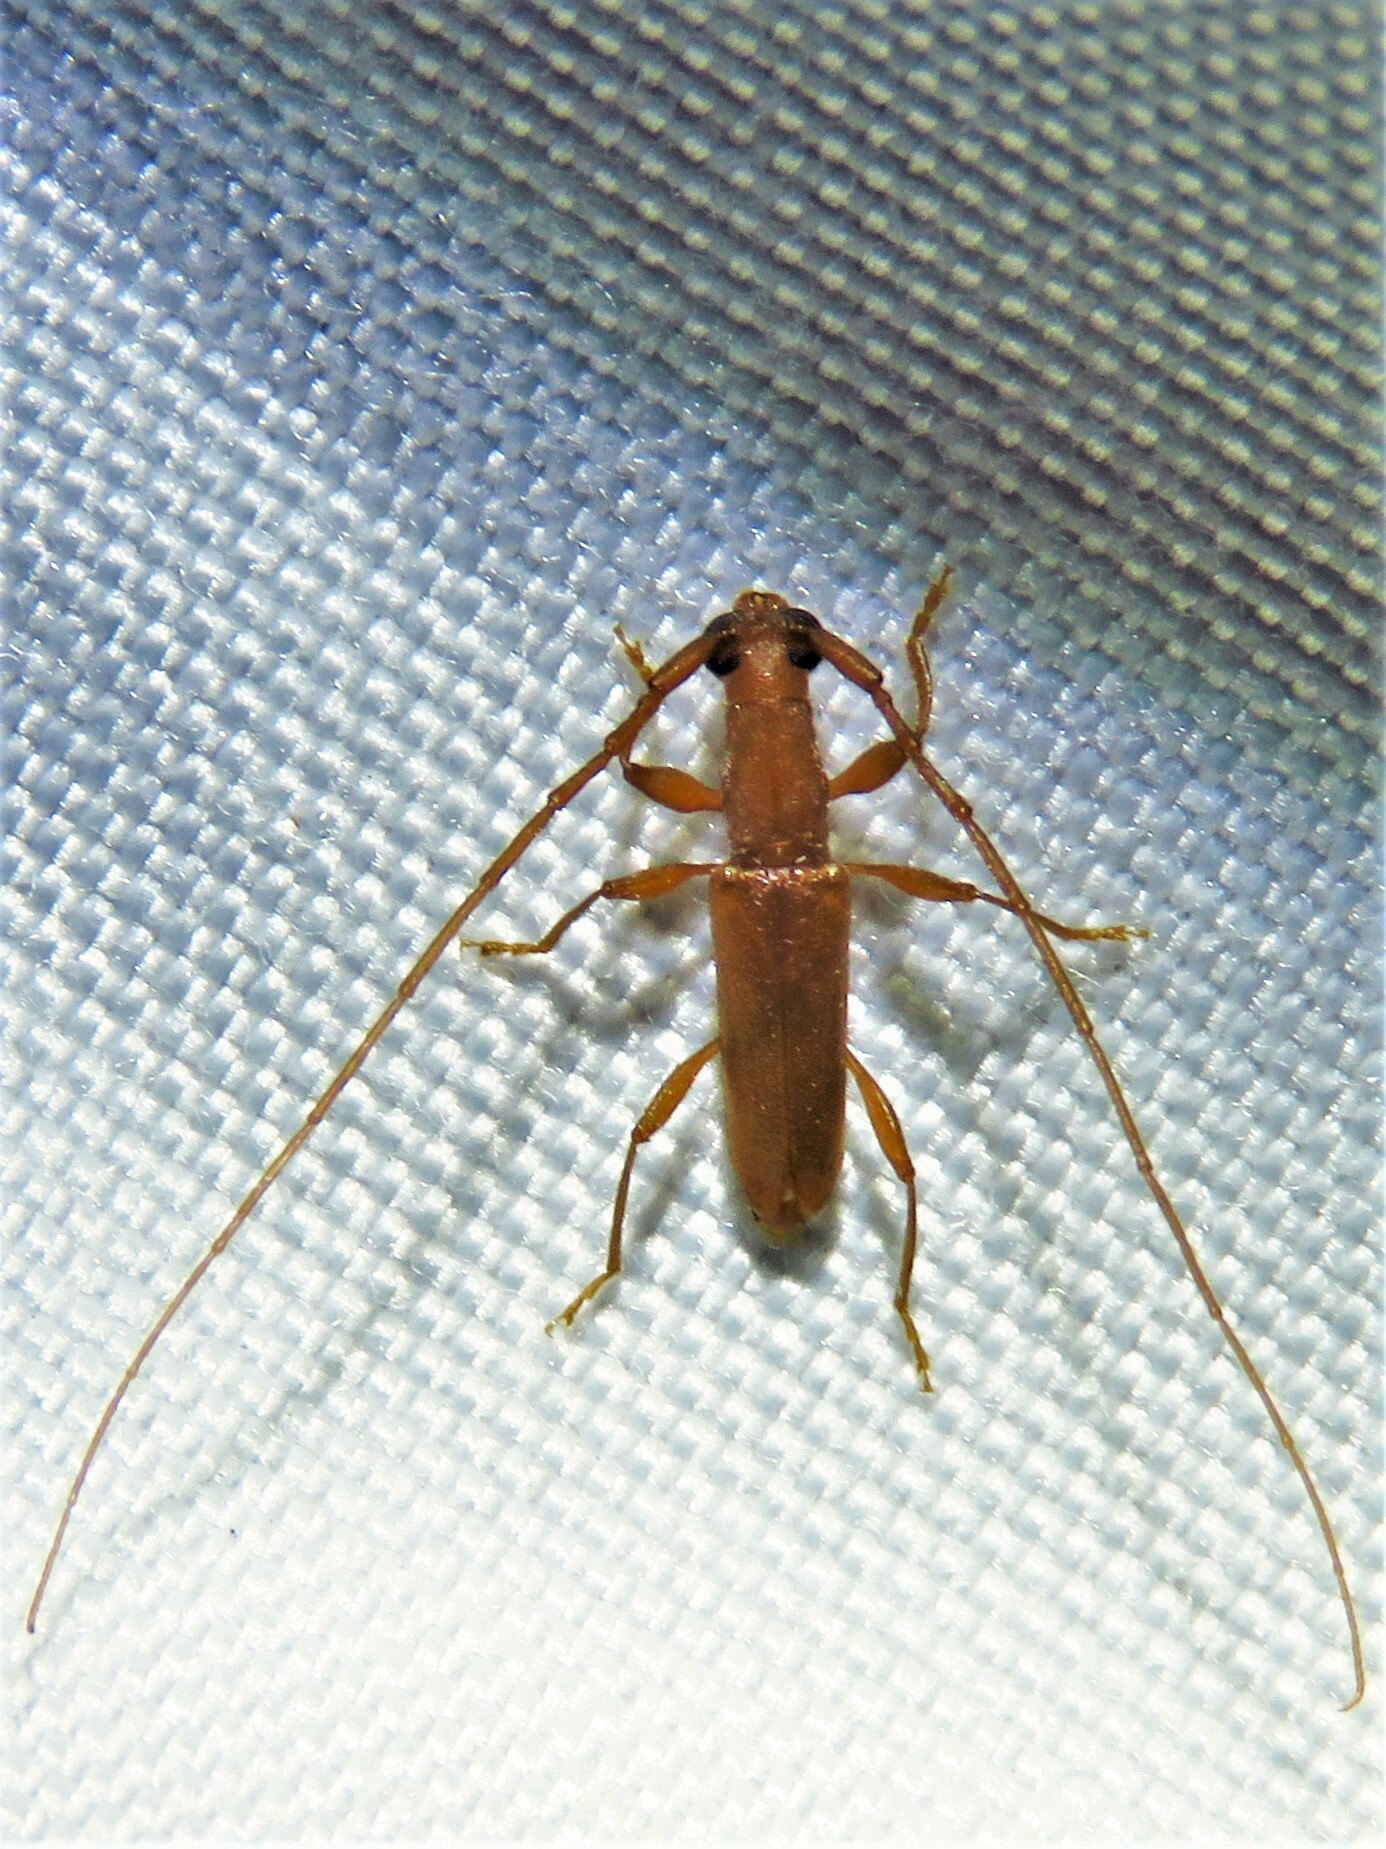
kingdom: Animalia
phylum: Arthropoda
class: Insecta
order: Coleoptera
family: Cerambycidae
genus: Hypexilis
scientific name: Hypexilis pallida
